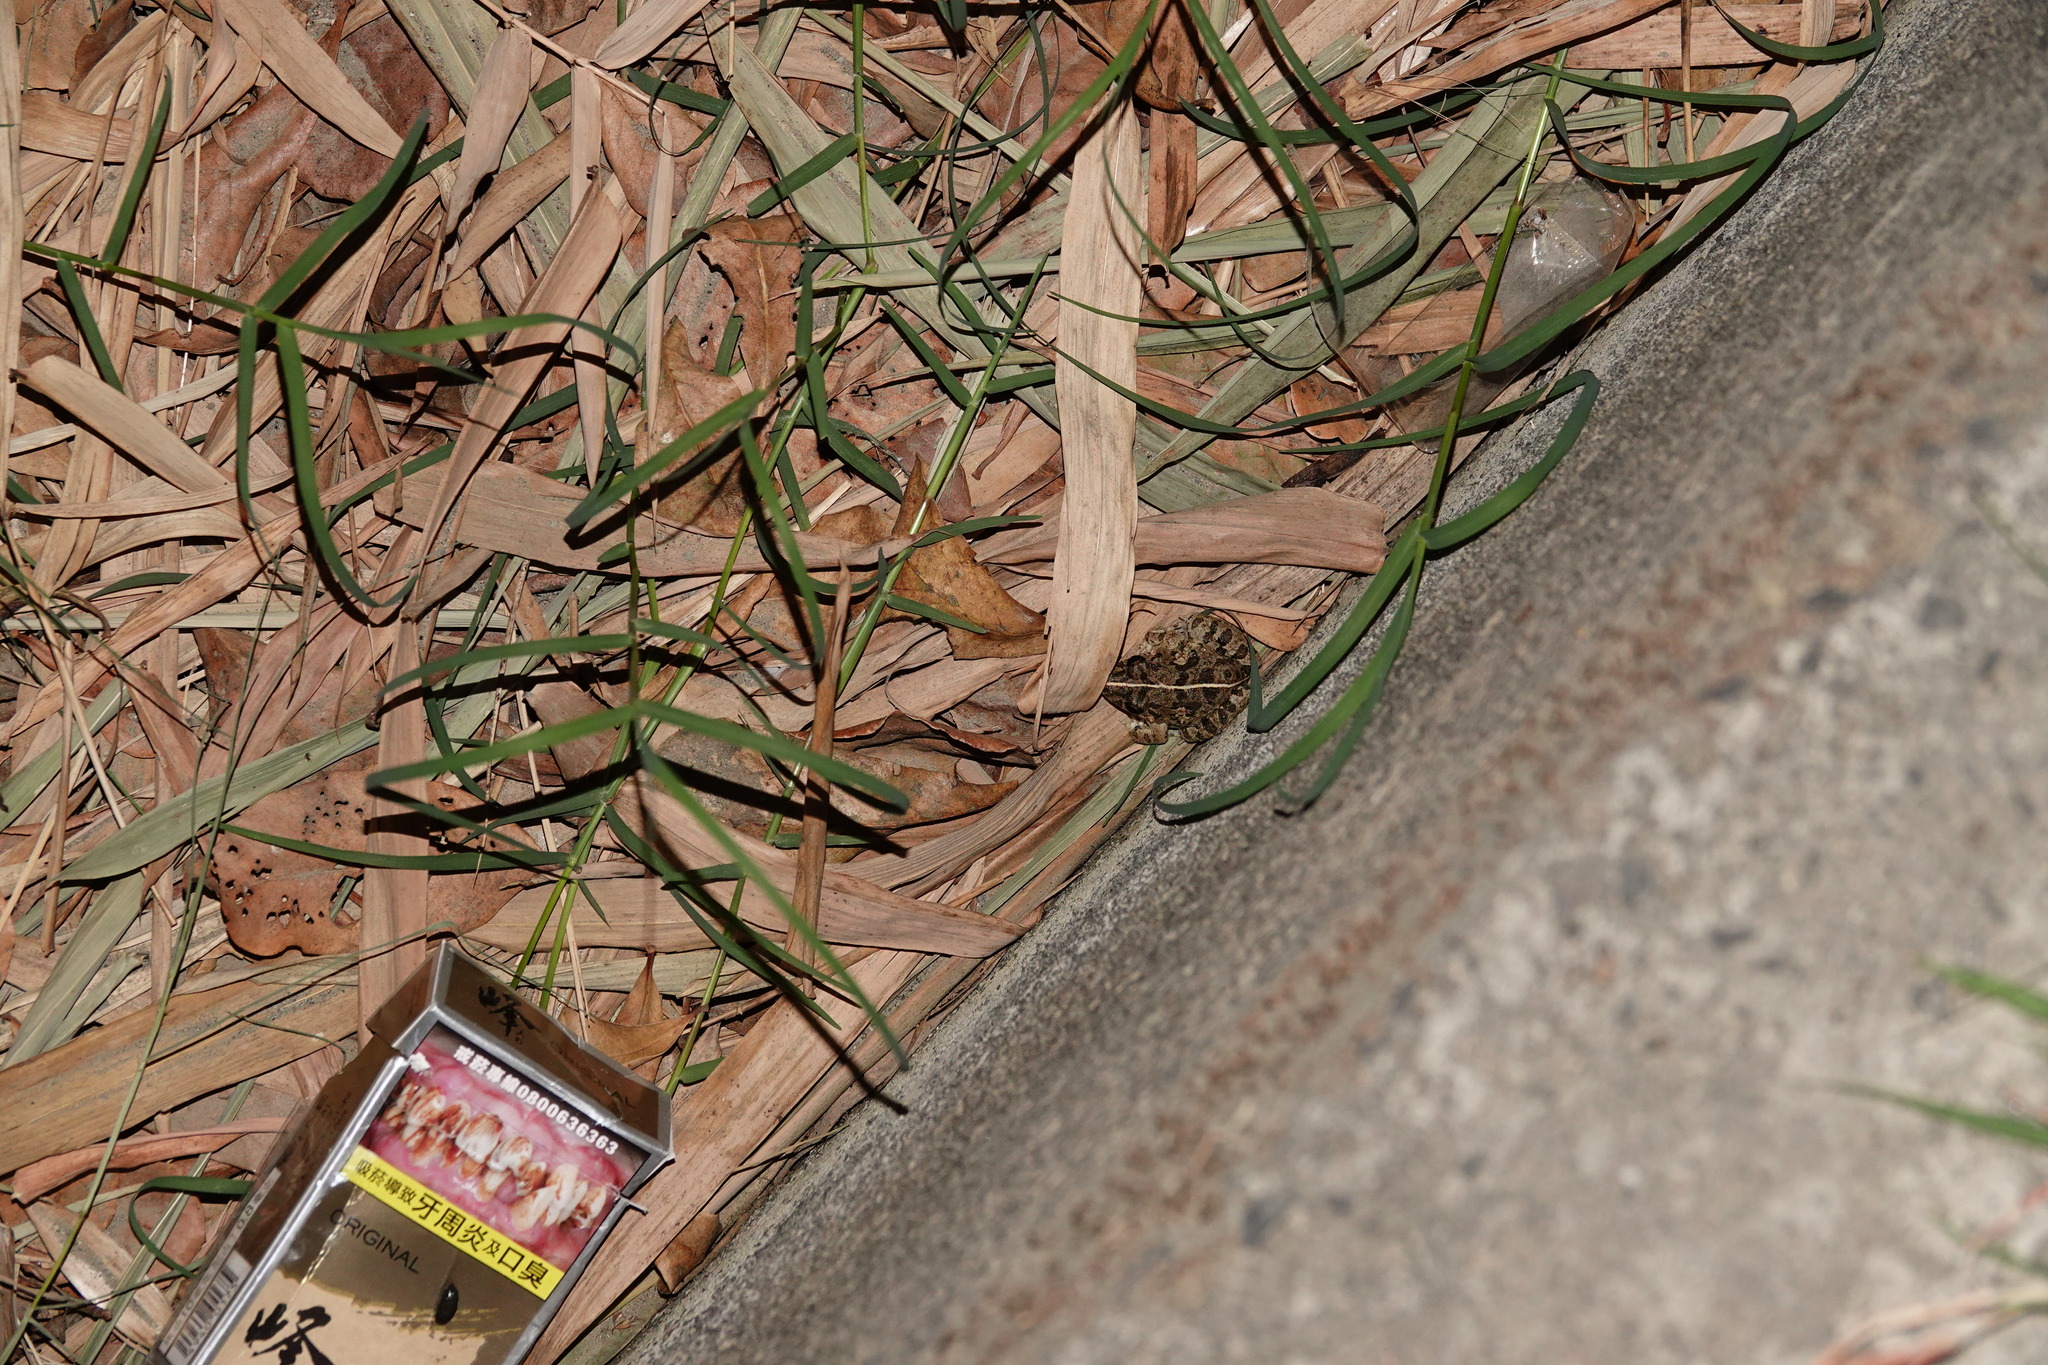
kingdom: Animalia
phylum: Chordata
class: Amphibia
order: Anura
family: Dicroglossidae
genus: Fejervarya
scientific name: Fejervarya limnocharis
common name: Asian grass frog/common pond frog/field frog/grass frog/indian rice frog
